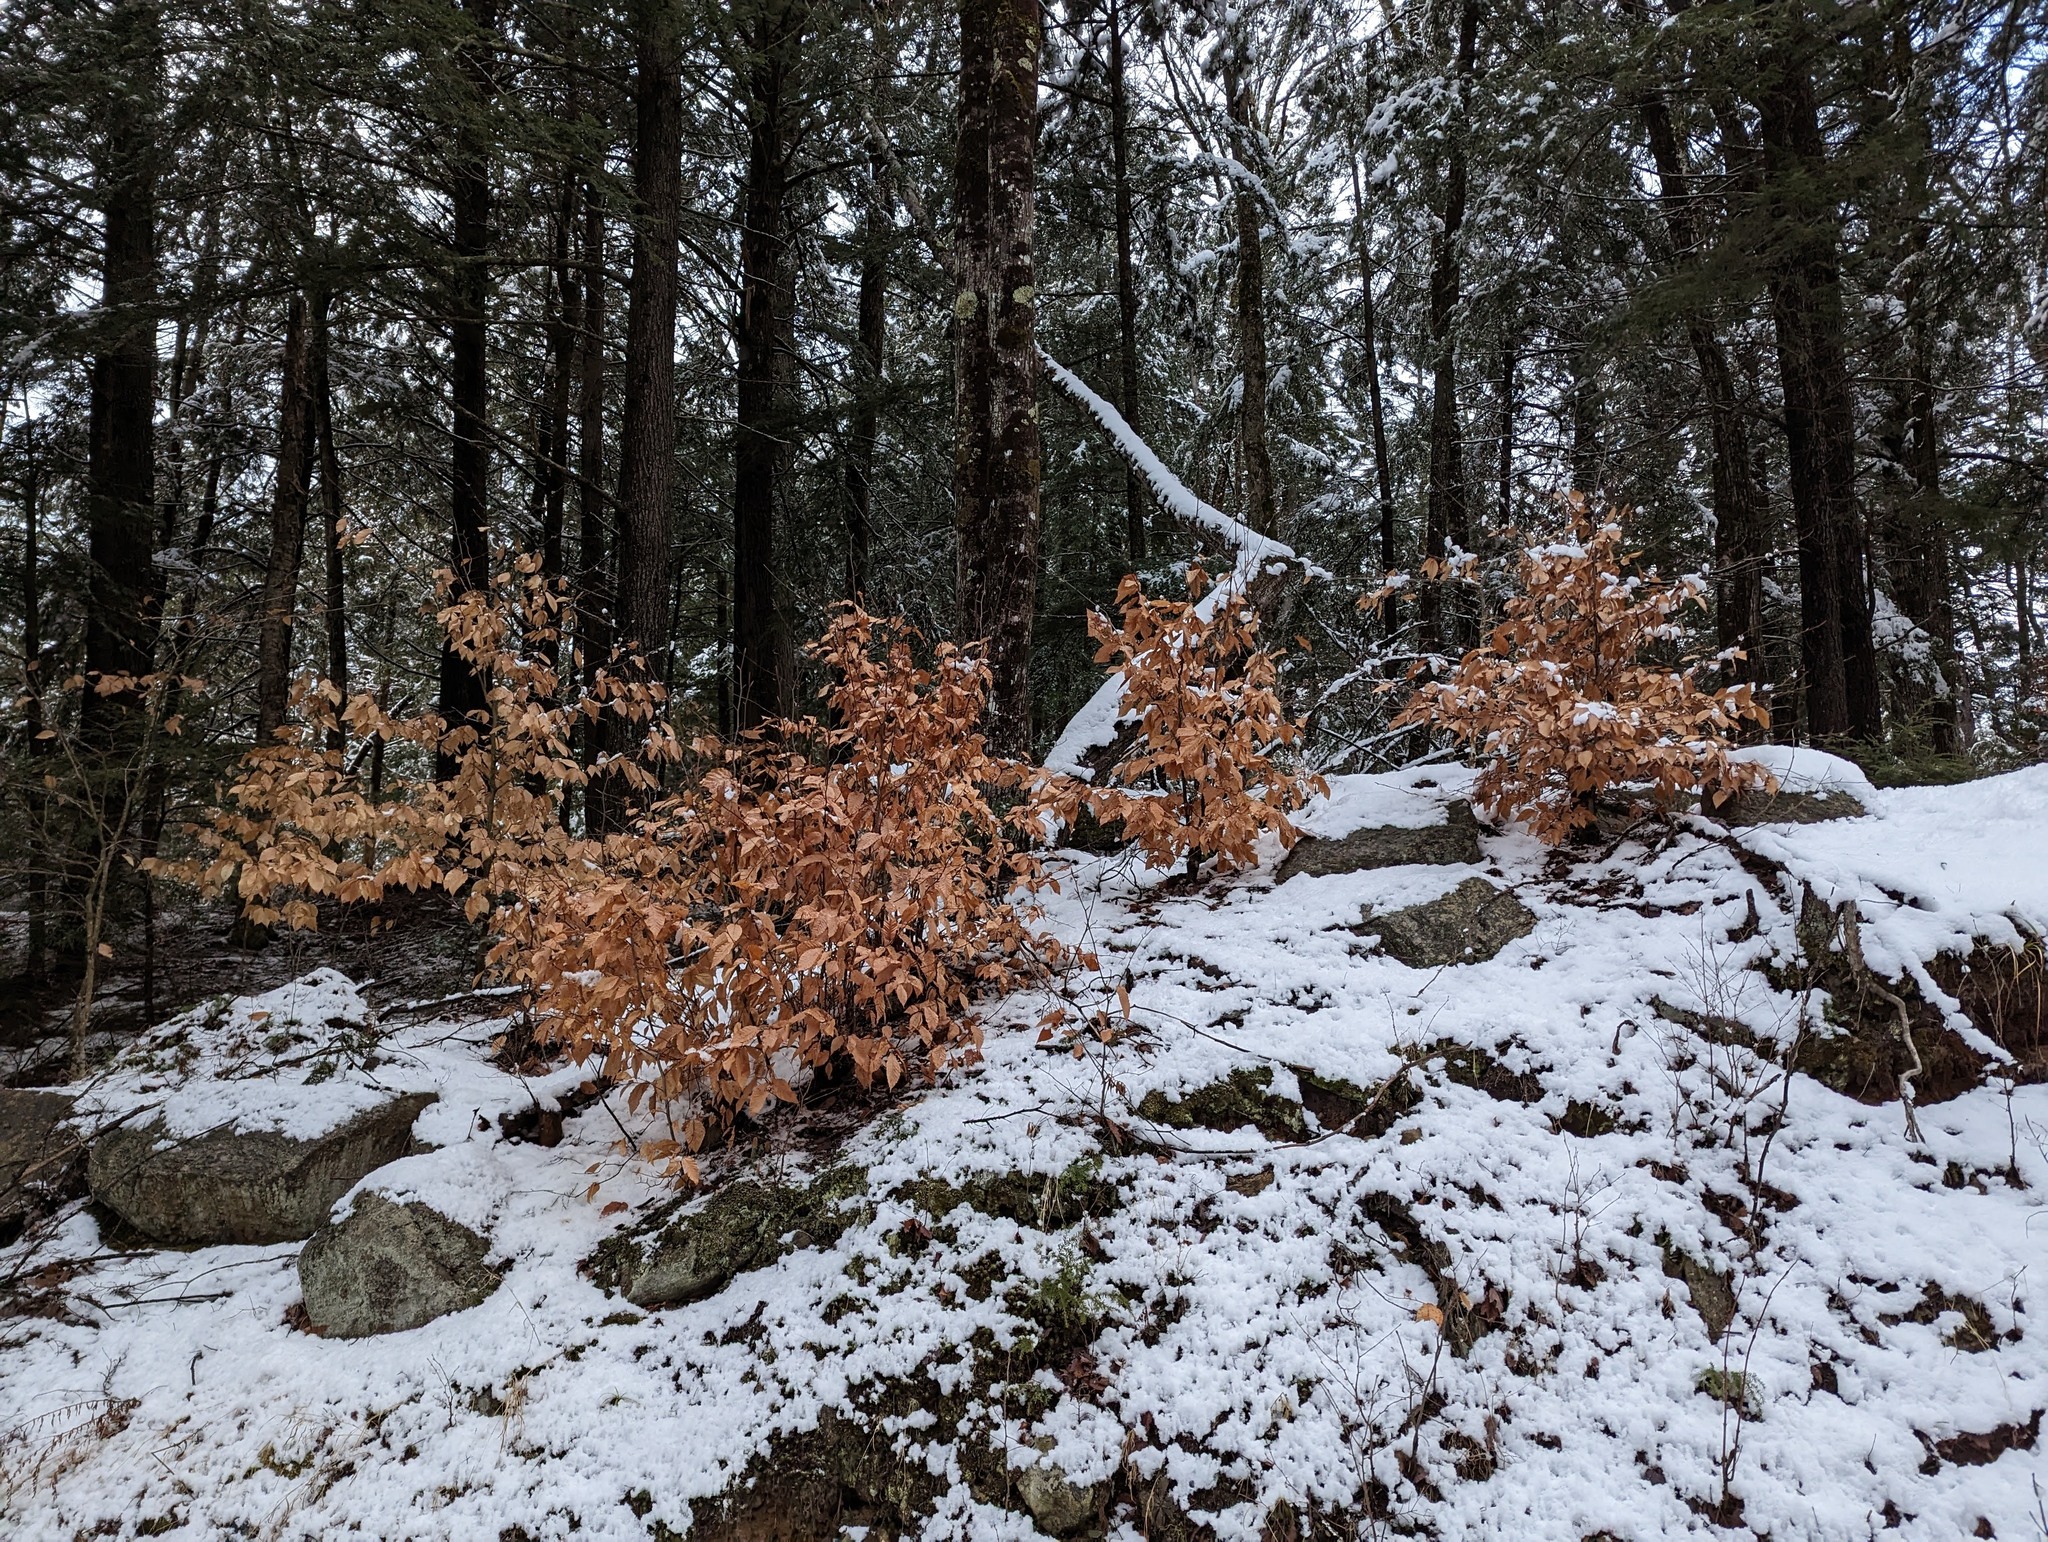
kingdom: Plantae
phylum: Tracheophyta
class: Magnoliopsida
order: Fagales
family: Fagaceae
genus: Fagus
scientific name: Fagus grandifolia
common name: American beech
